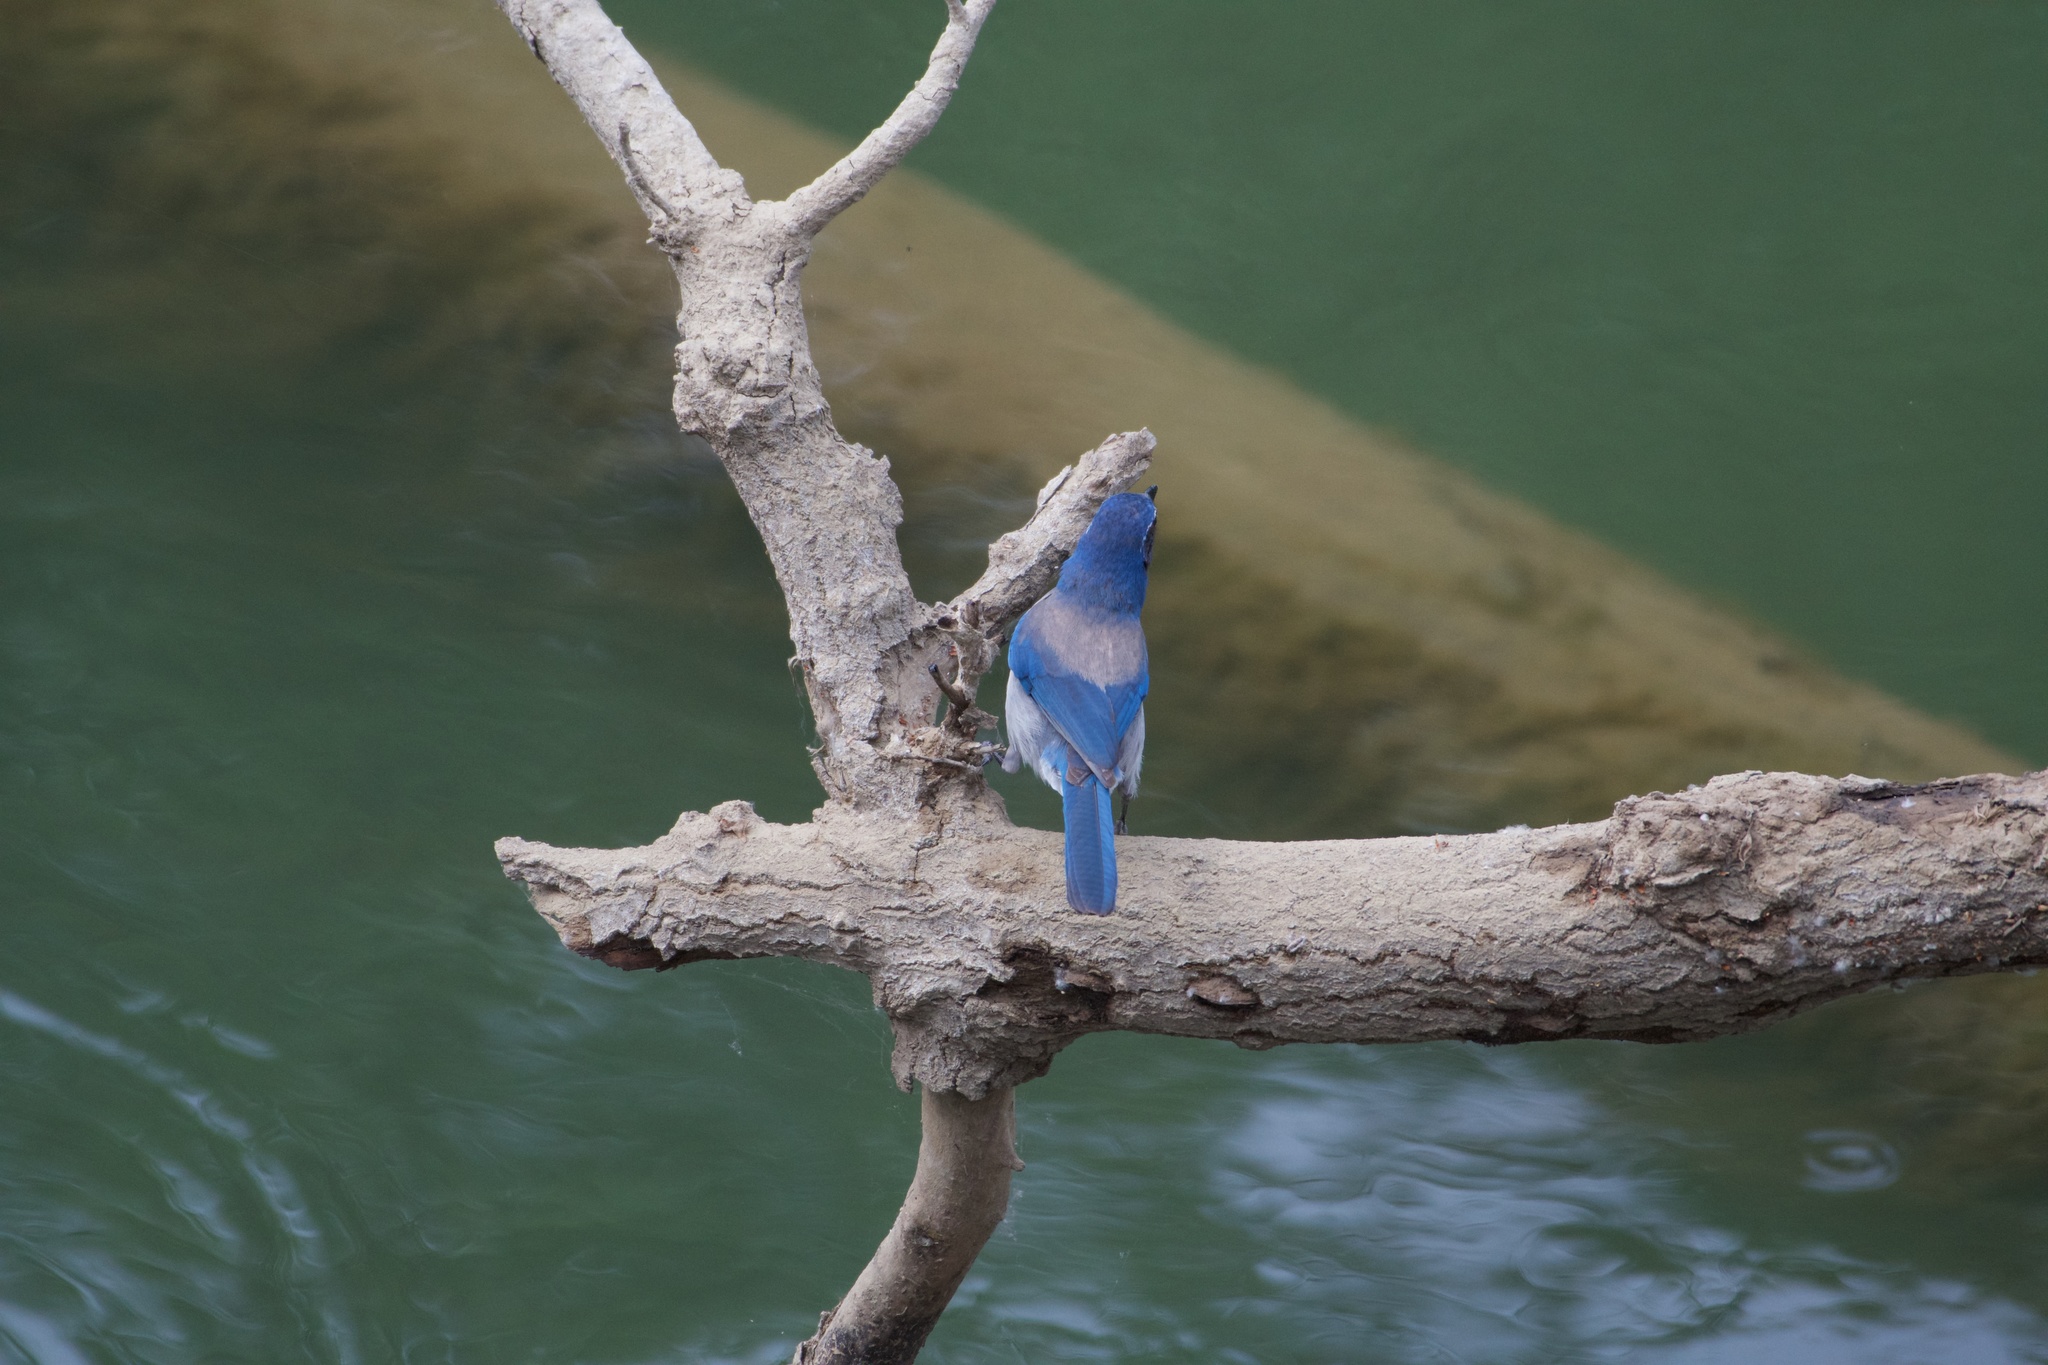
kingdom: Animalia
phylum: Chordata
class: Aves
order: Passeriformes
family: Corvidae
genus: Aphelocoma
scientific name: Aphelocoma californica
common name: California scrub-jay
